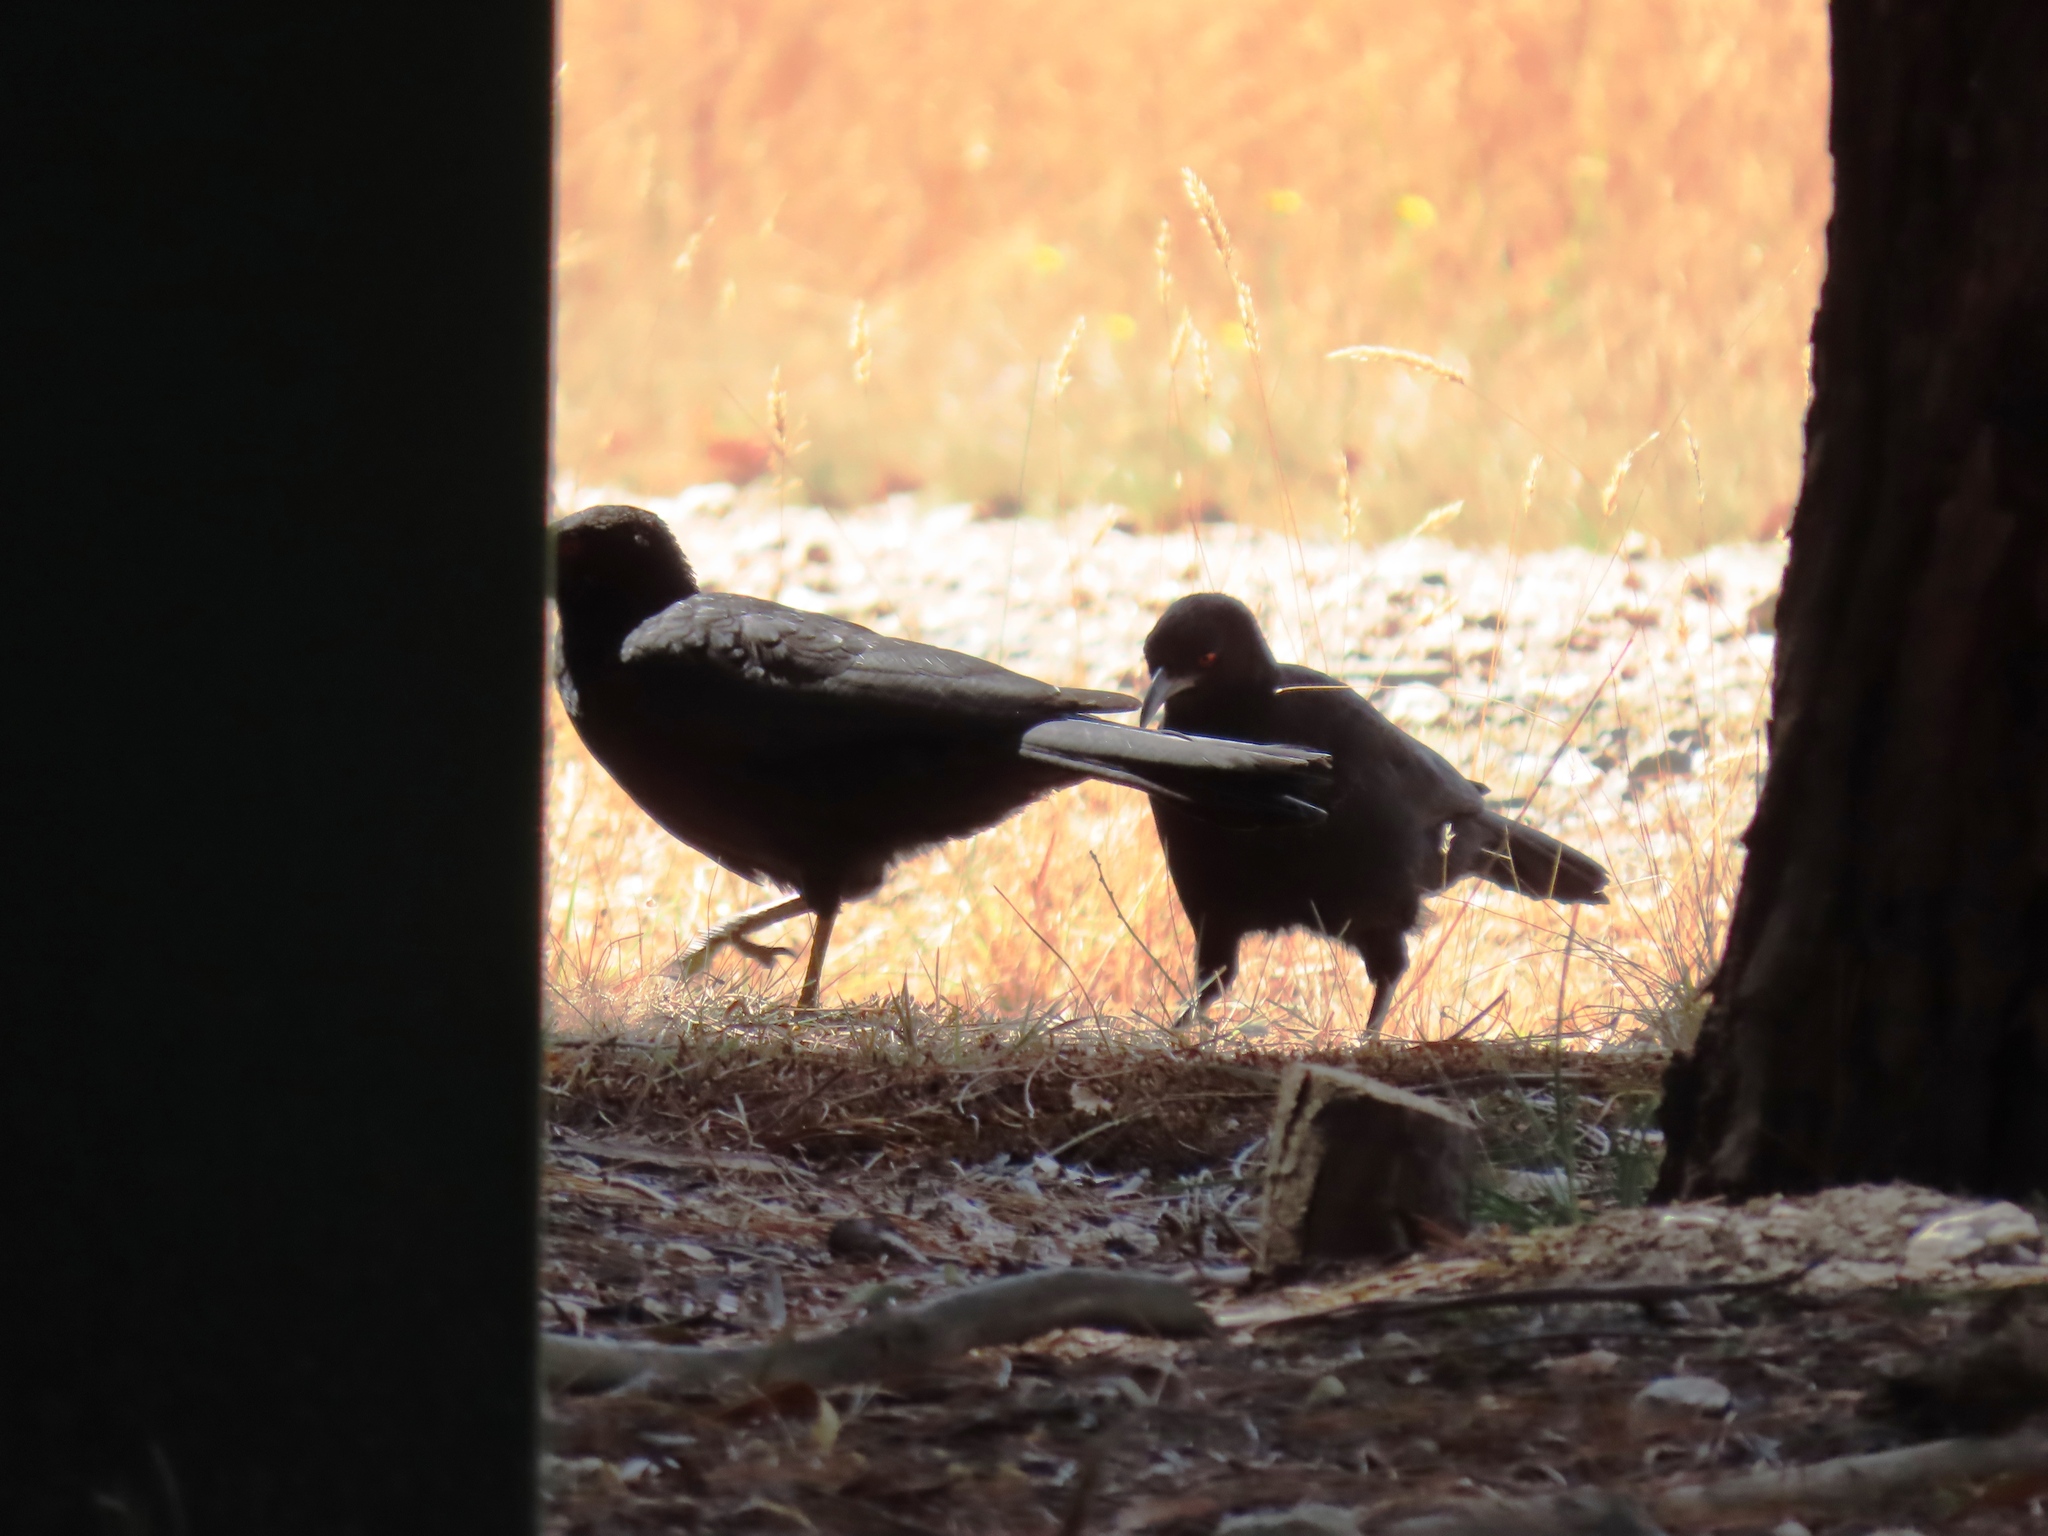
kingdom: Animalia
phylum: Chordata
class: Aves
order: Passeriformes
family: Corcoracidae
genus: Corcorax
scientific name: Corcorax melanoramphos
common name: White-winged chough
